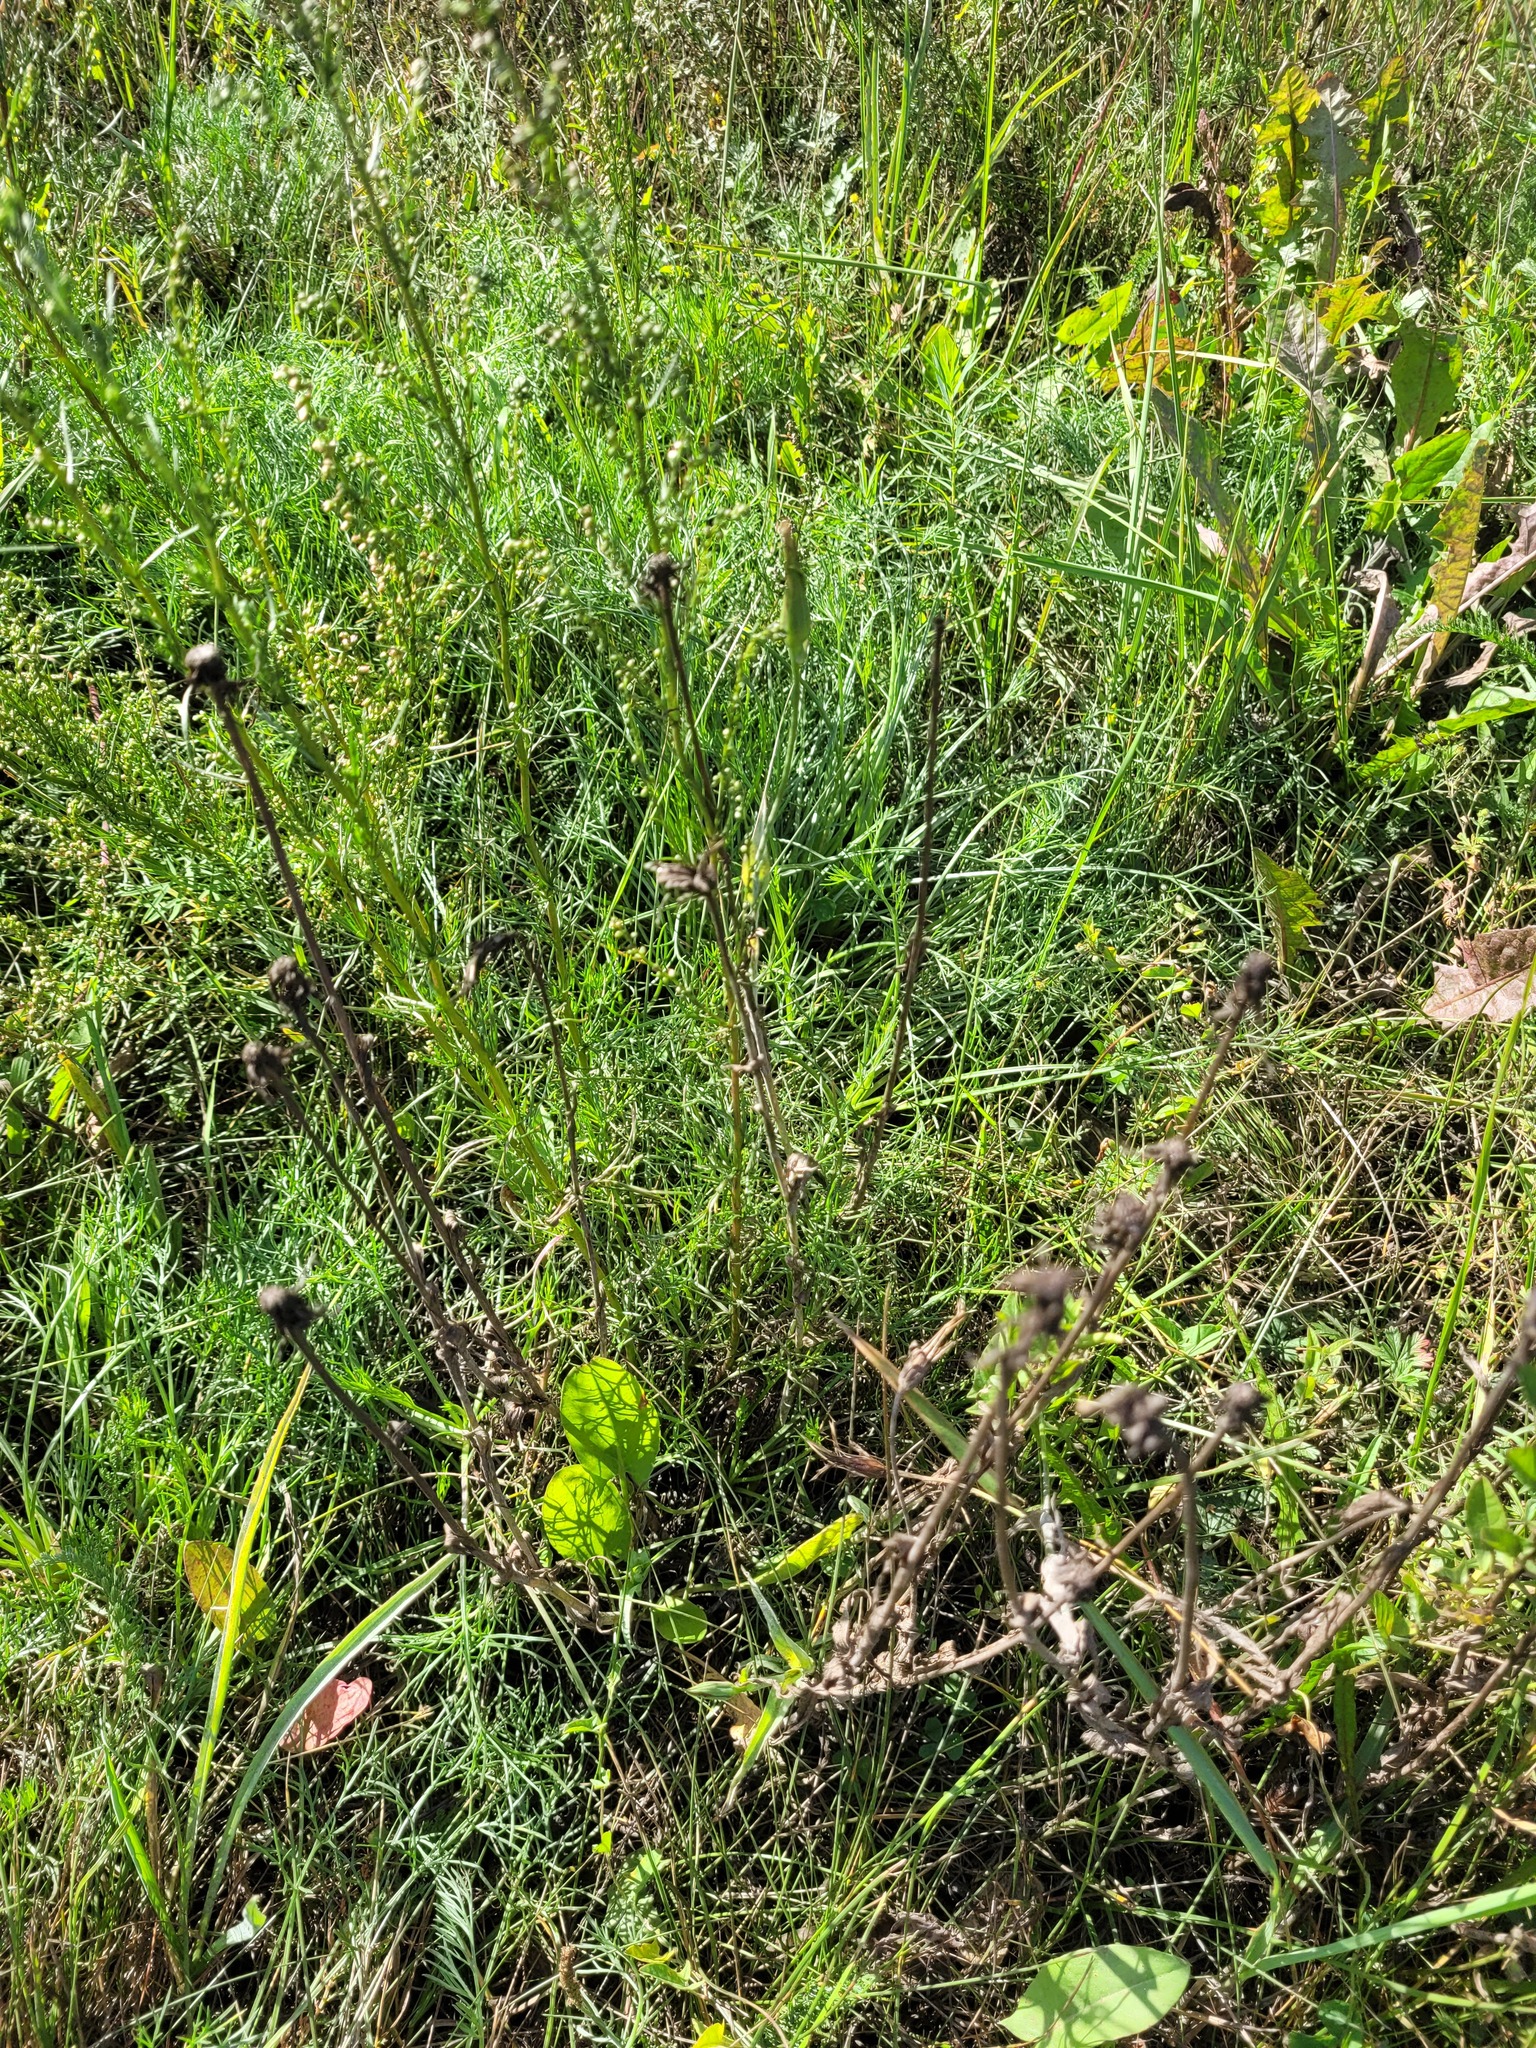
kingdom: Plantae
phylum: Tracheophyta
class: Magnoliopsida
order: Asterales
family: Asteraceae
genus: Artemisia
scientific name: Artemisia campestris
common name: Field wormwood
